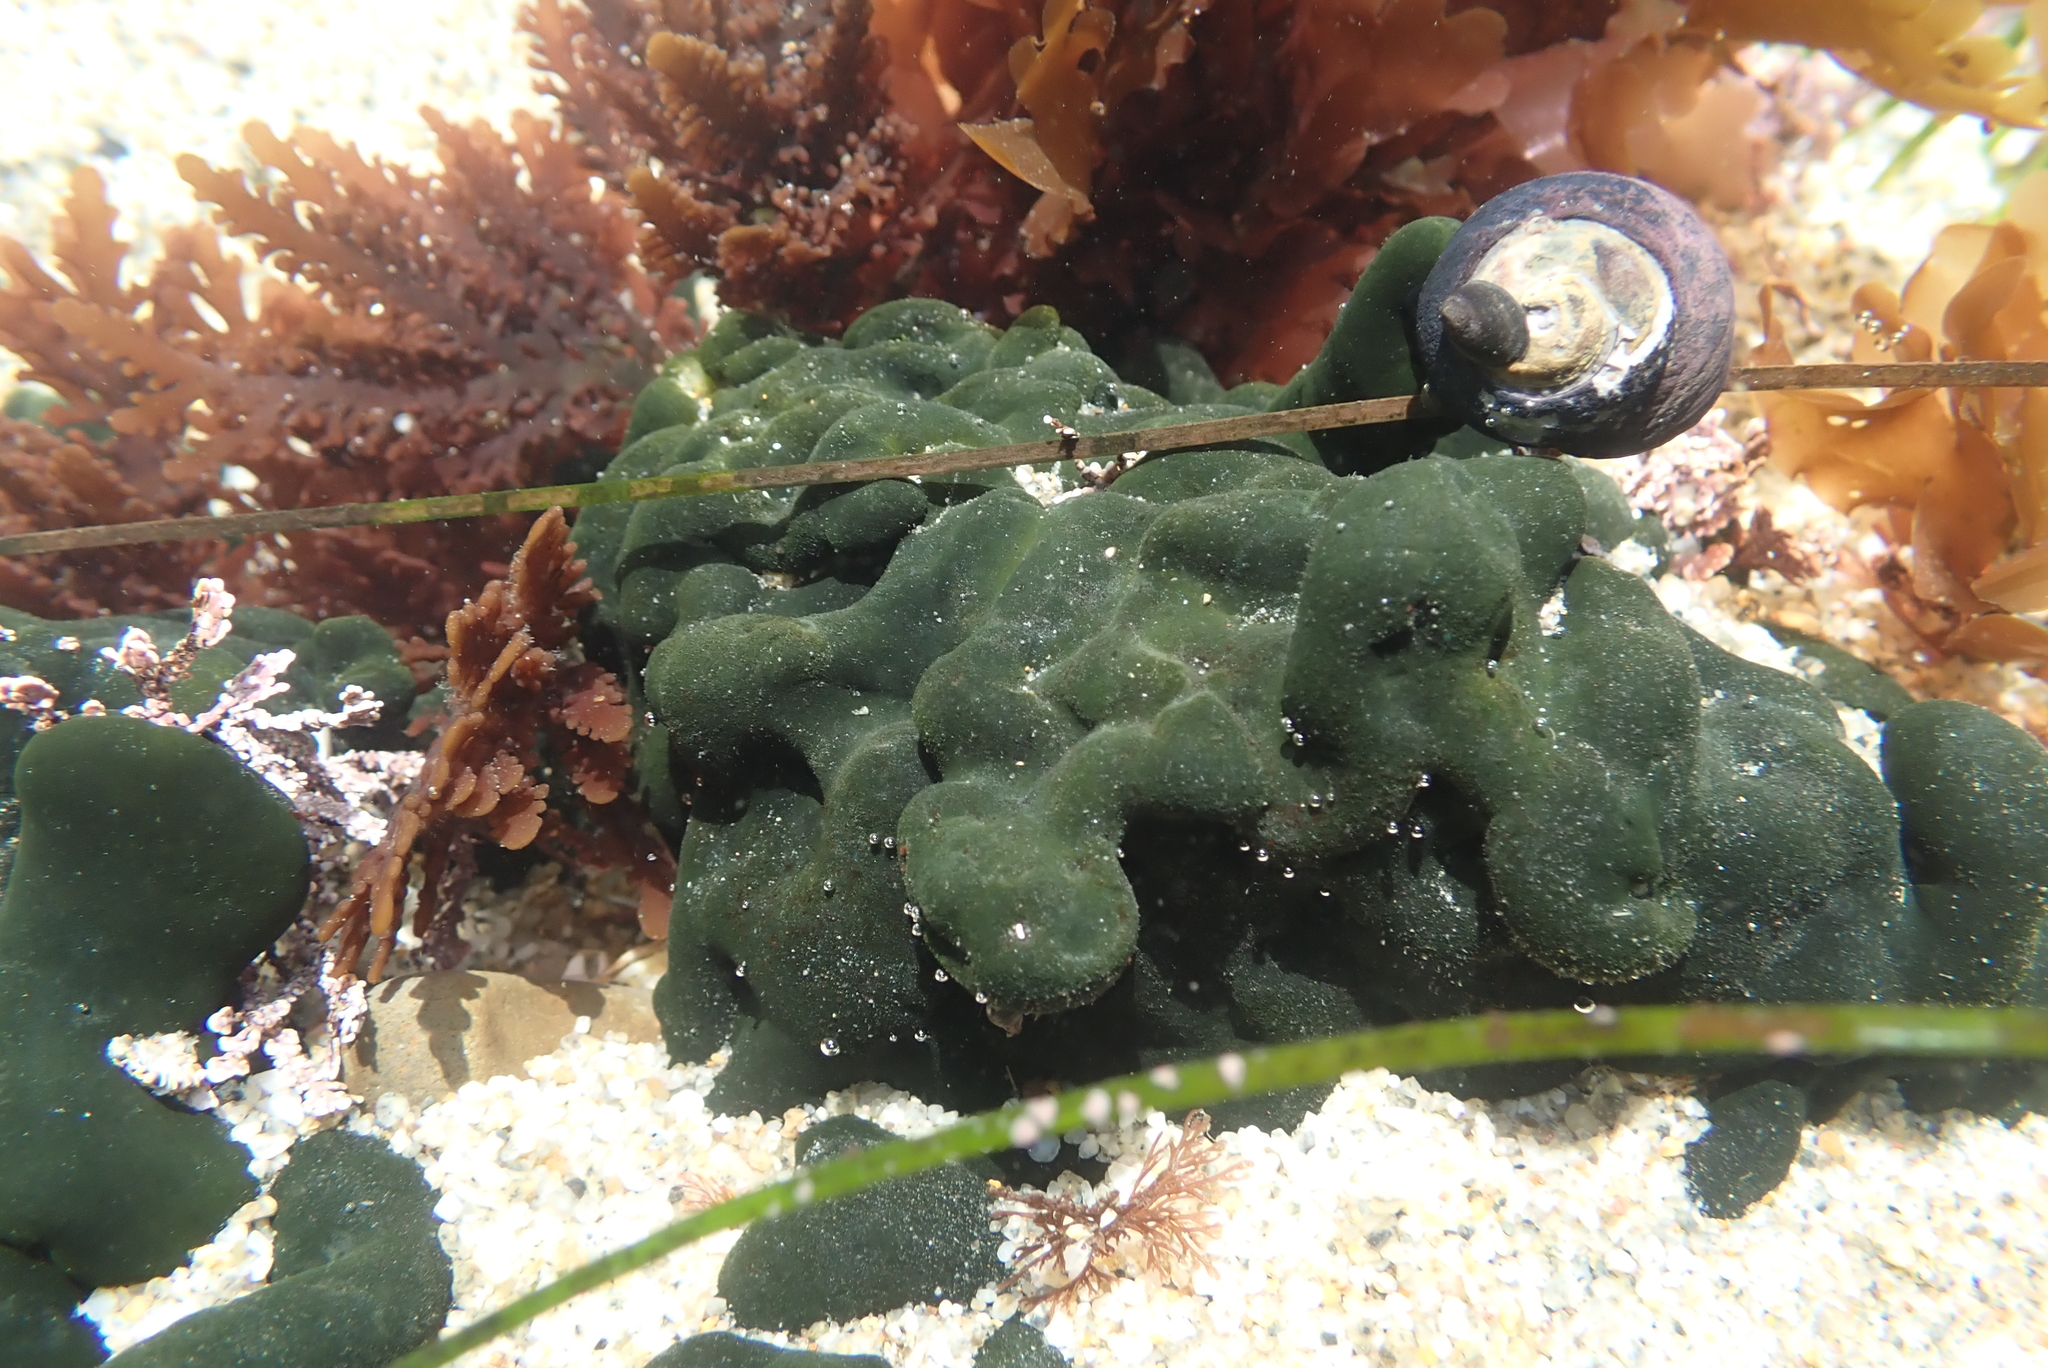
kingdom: Plantae
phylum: Chlorophyta
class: Ulvophyceae
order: Bryopsidales
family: Codiaceae
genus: Codium
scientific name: Codium setchellii
